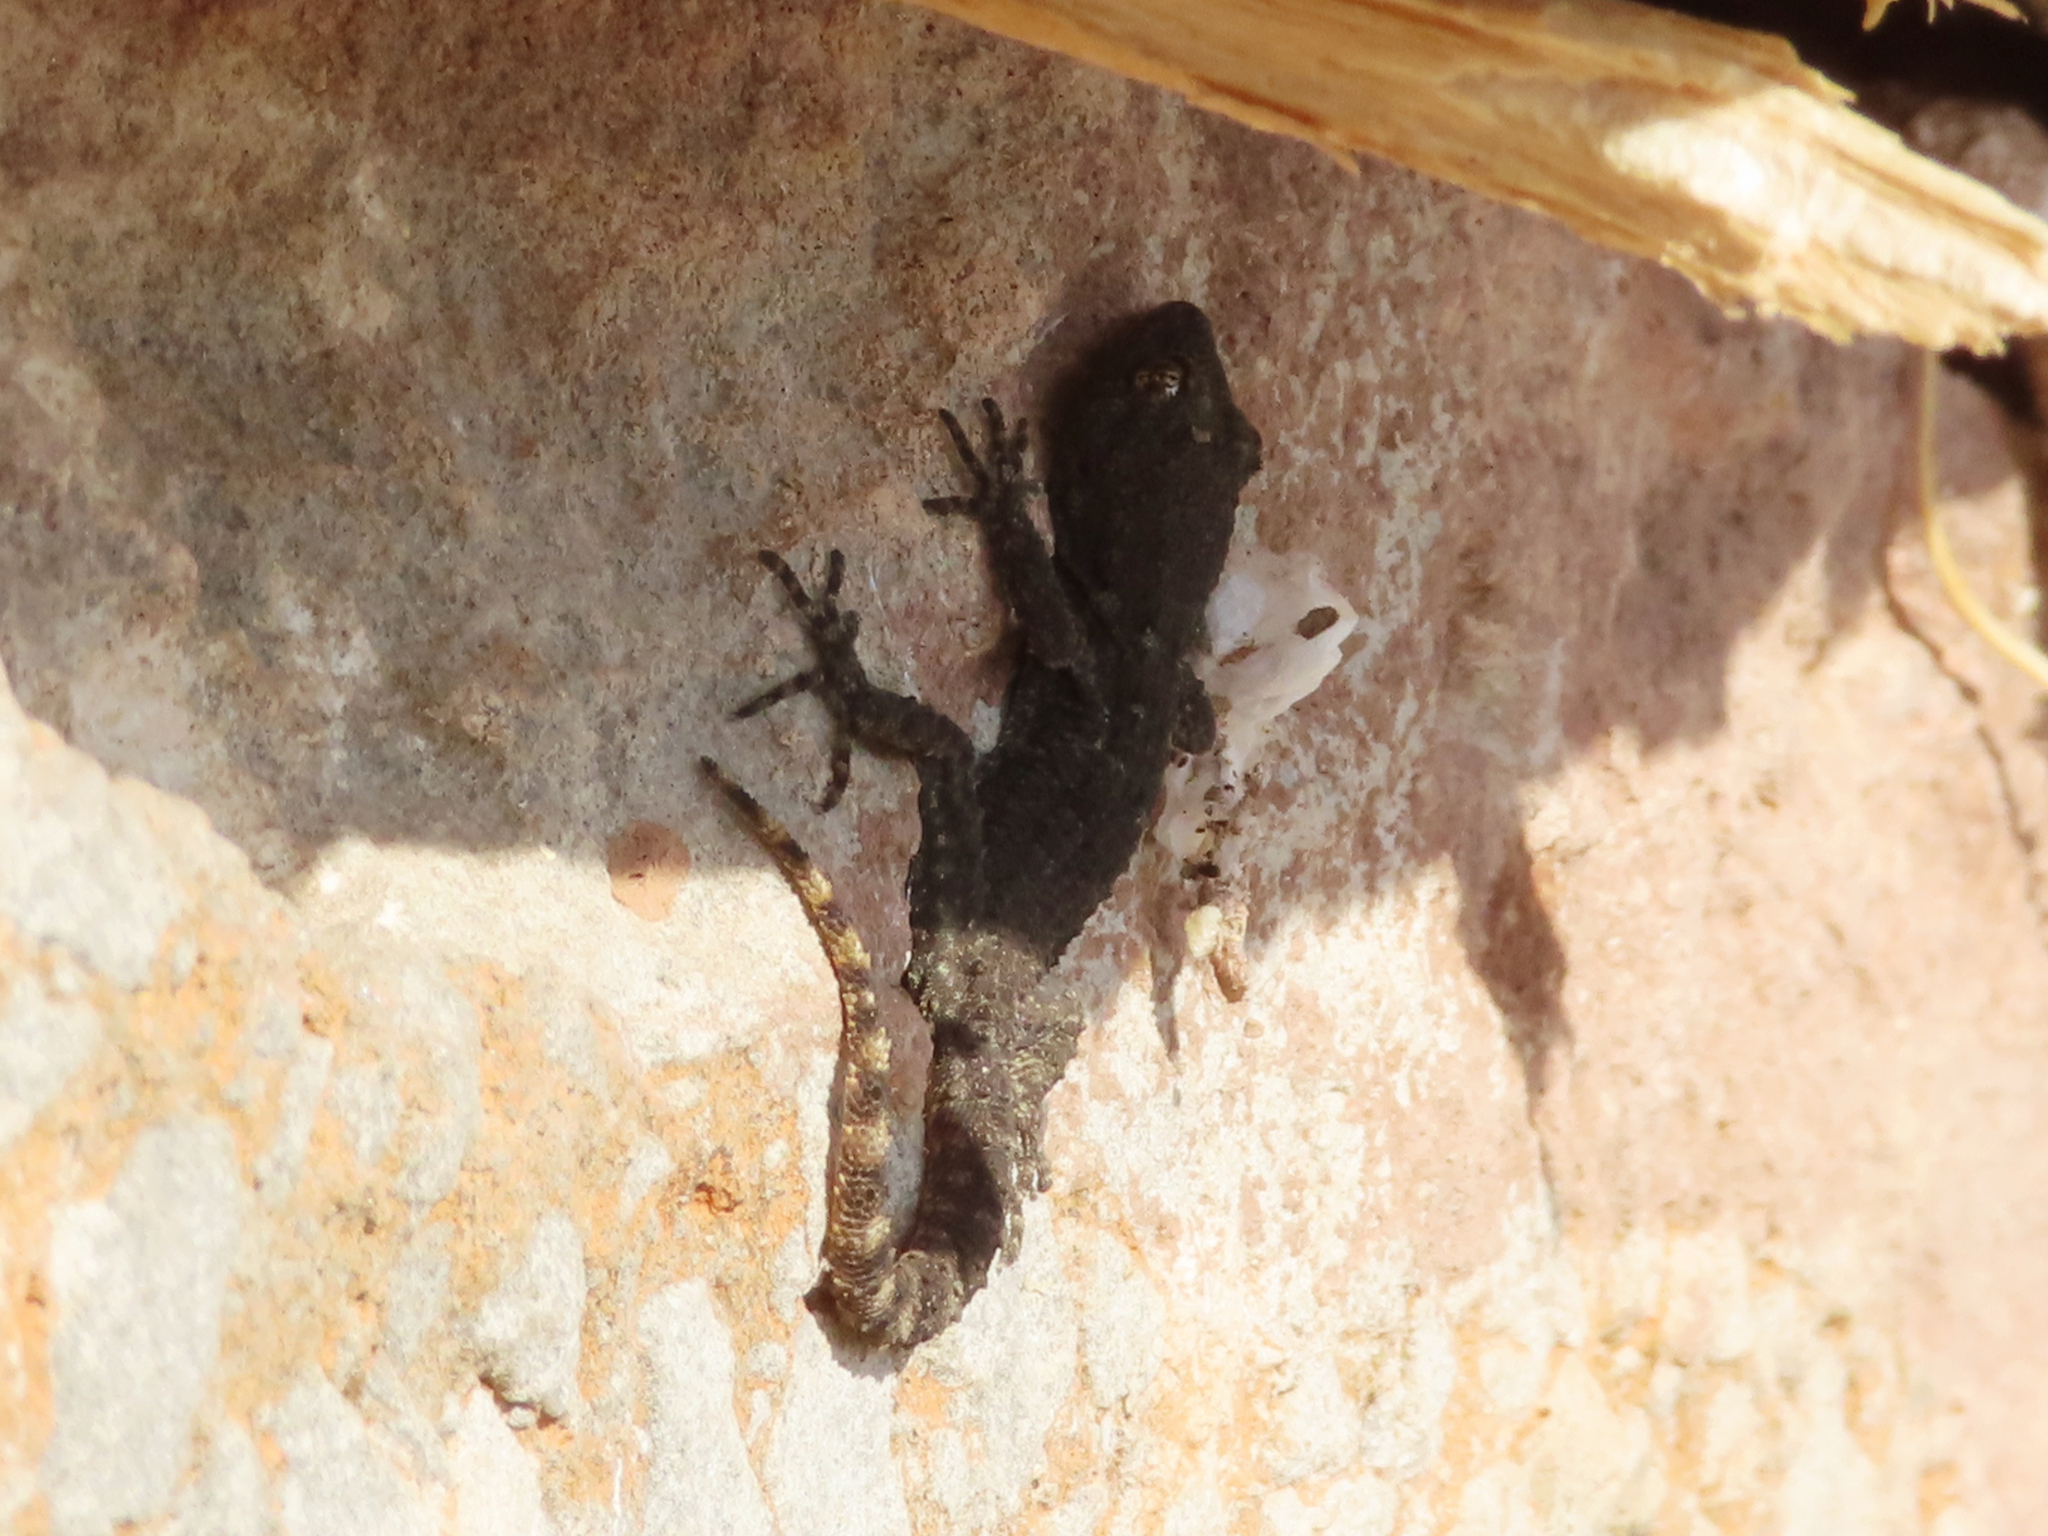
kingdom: Animalia
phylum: Chordata
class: Squamata
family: Gekkonidae
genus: Mediodactylus
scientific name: Mediodactylus kotschyi
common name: Kotschy's gecko
